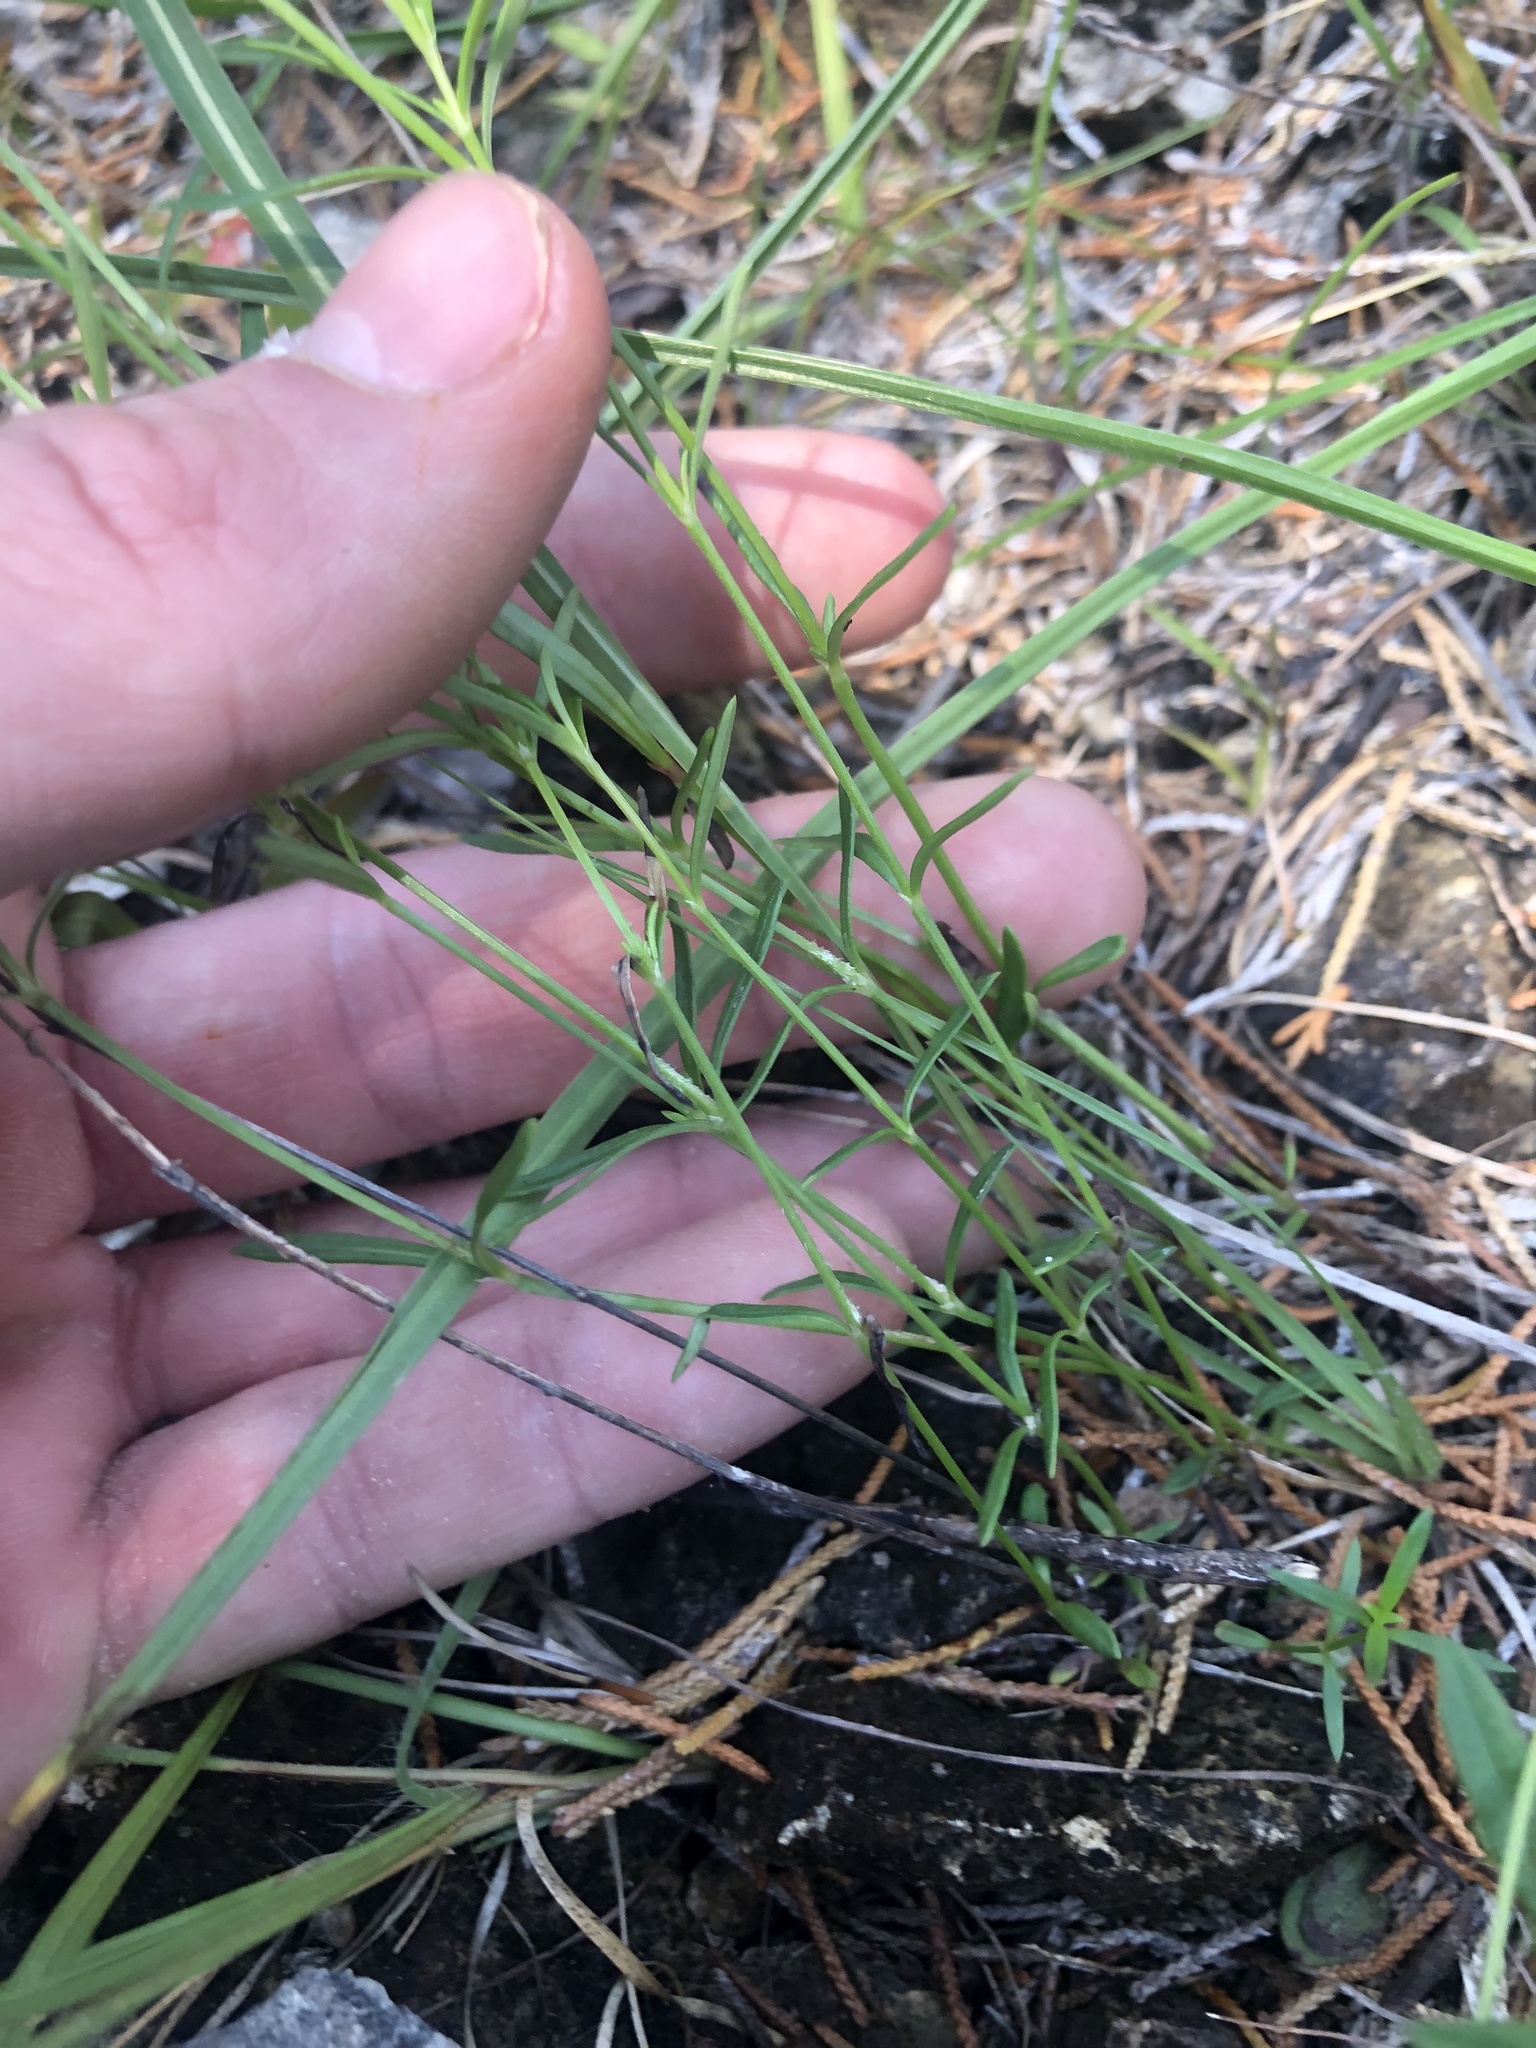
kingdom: Plantae
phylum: Tracheophyta
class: Magnoliopsida
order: Gentianales
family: Rubiaceae
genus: Stenaria
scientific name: Stenaria nigricans
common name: Diamondflowers
